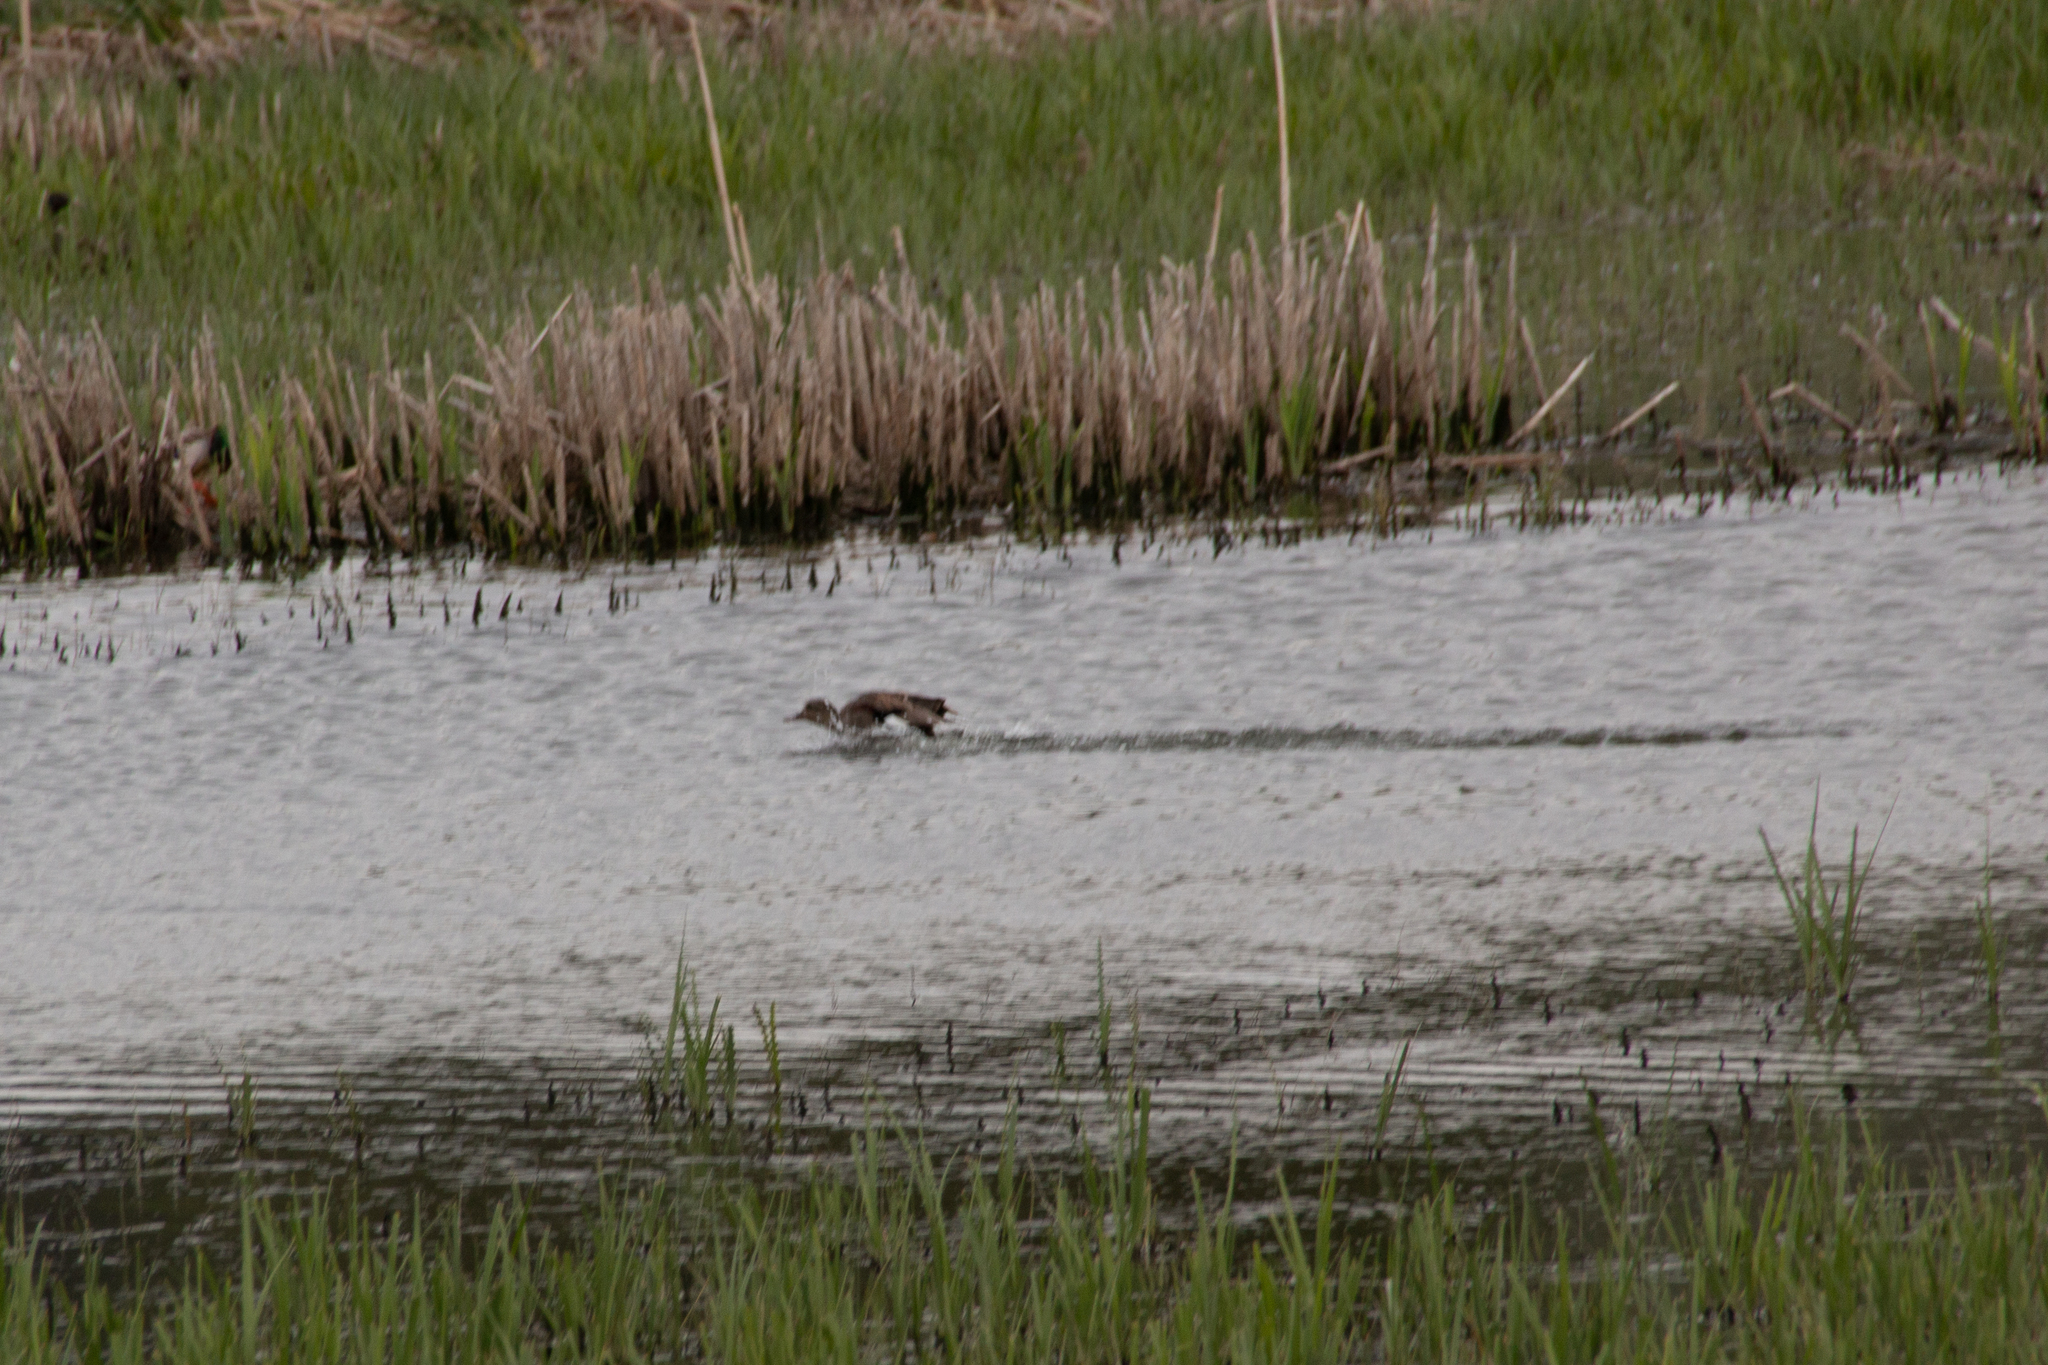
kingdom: Animalia
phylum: Chordata
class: Aves
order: Anseriformes
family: Anatidae
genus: Mareca
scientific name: Mareca strepera
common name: Gadwall
